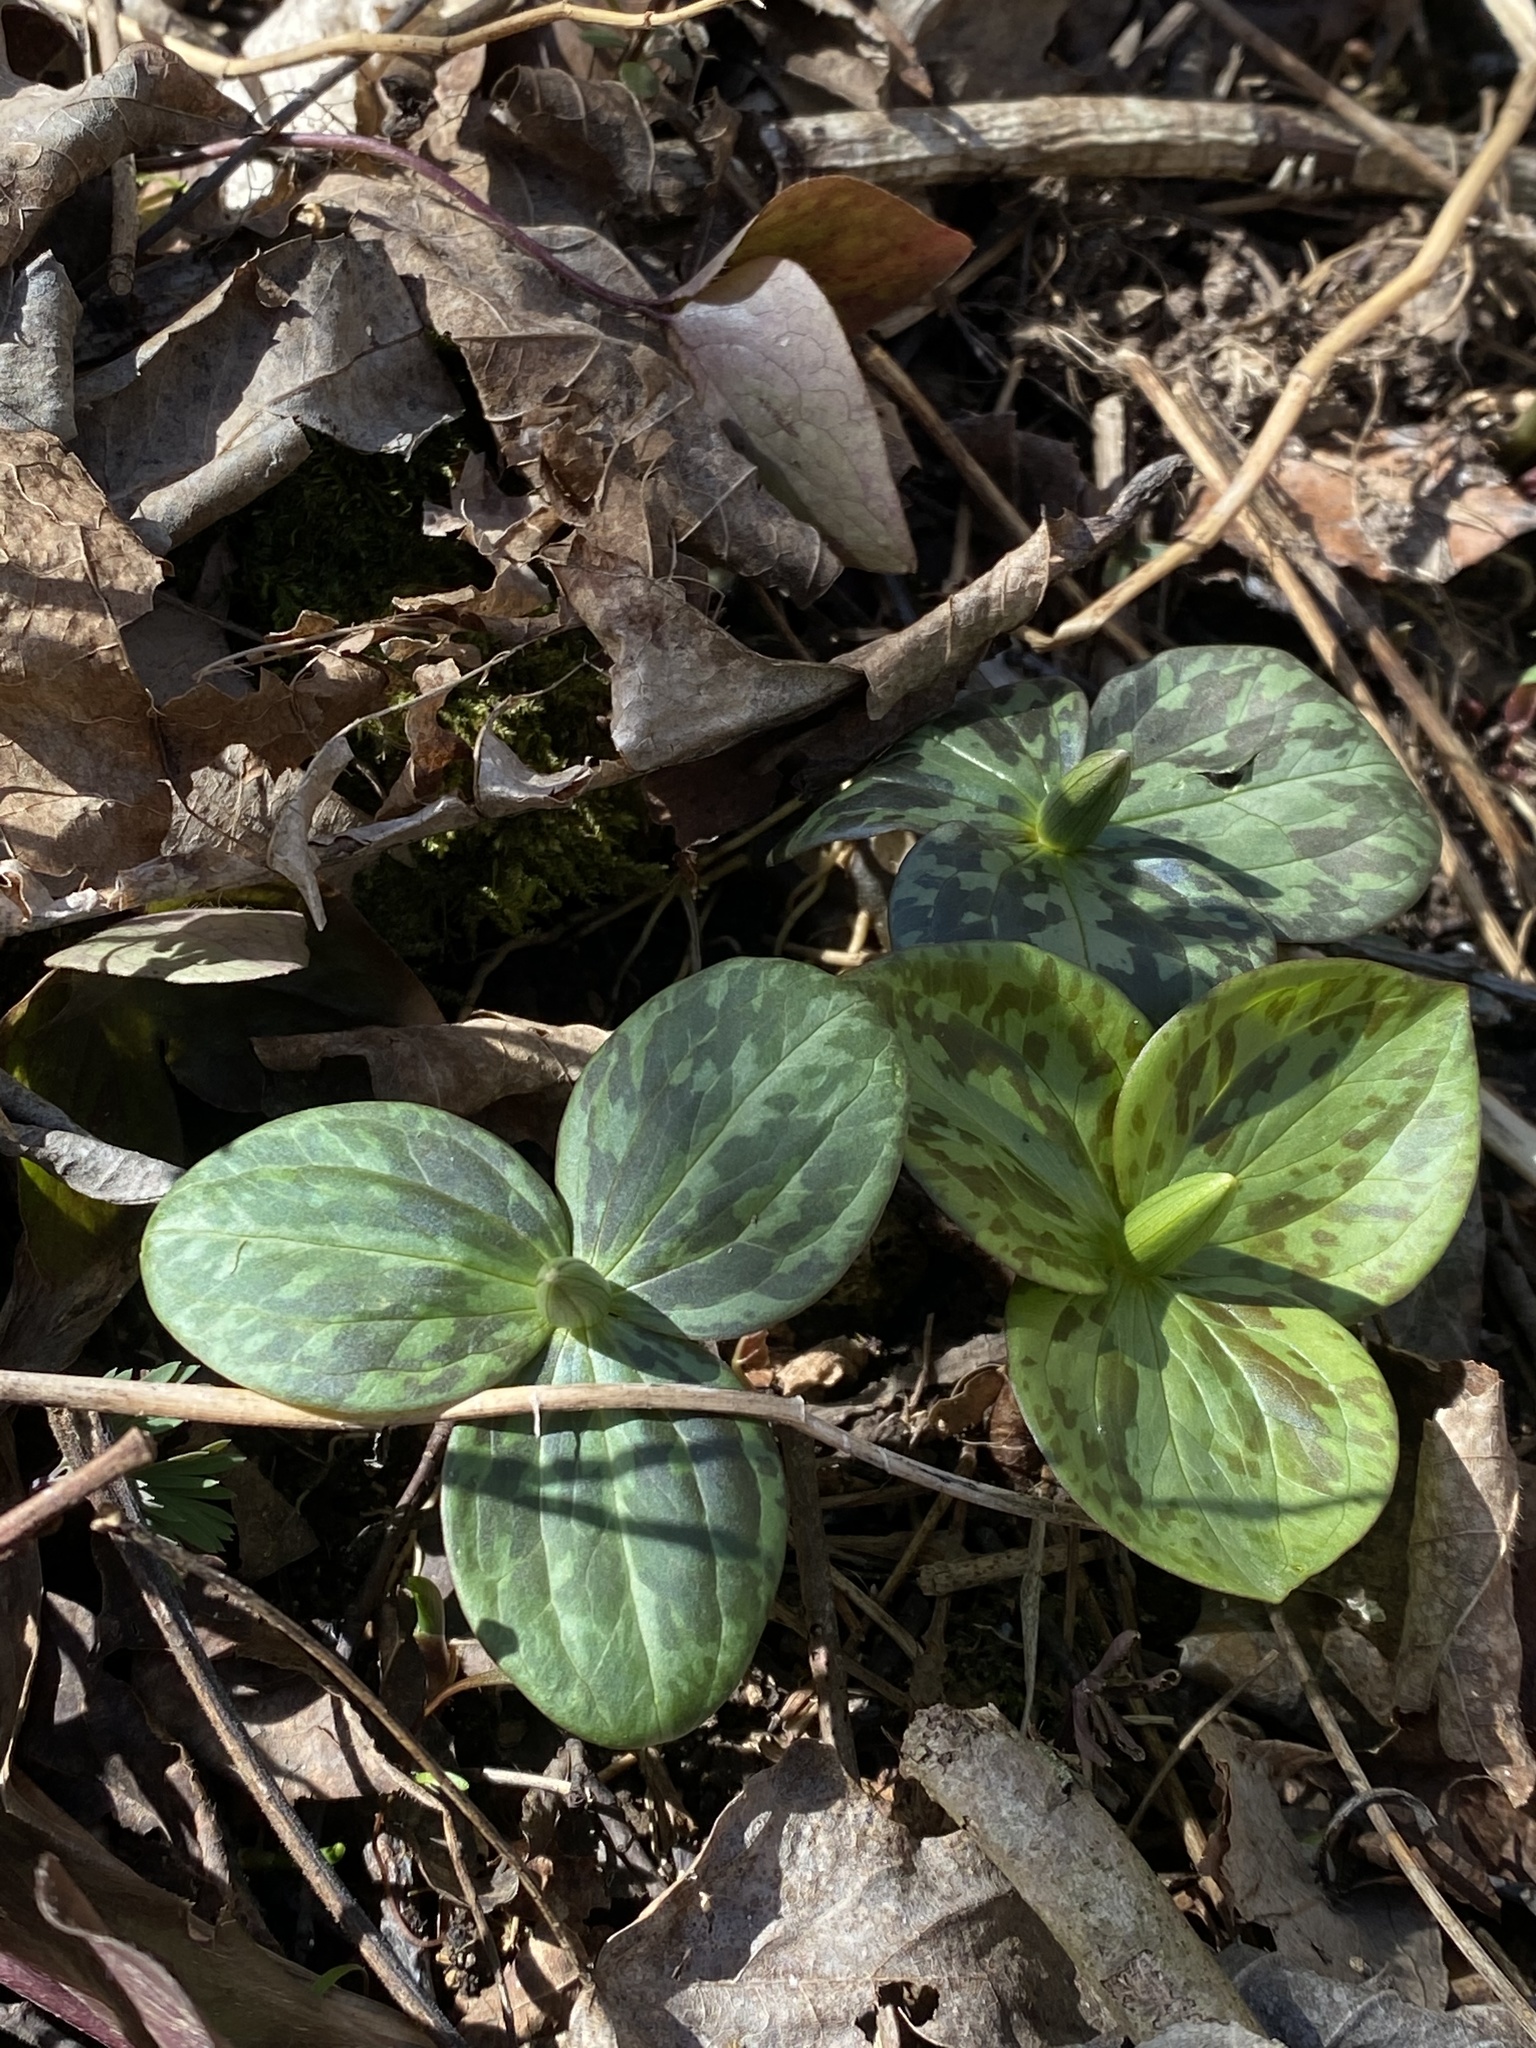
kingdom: Plantae
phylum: Tracheophyta
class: Liliopsida
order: Liliales
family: Melanthiaceae
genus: Trillium
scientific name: Trillium sessile
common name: Sessile trillium
